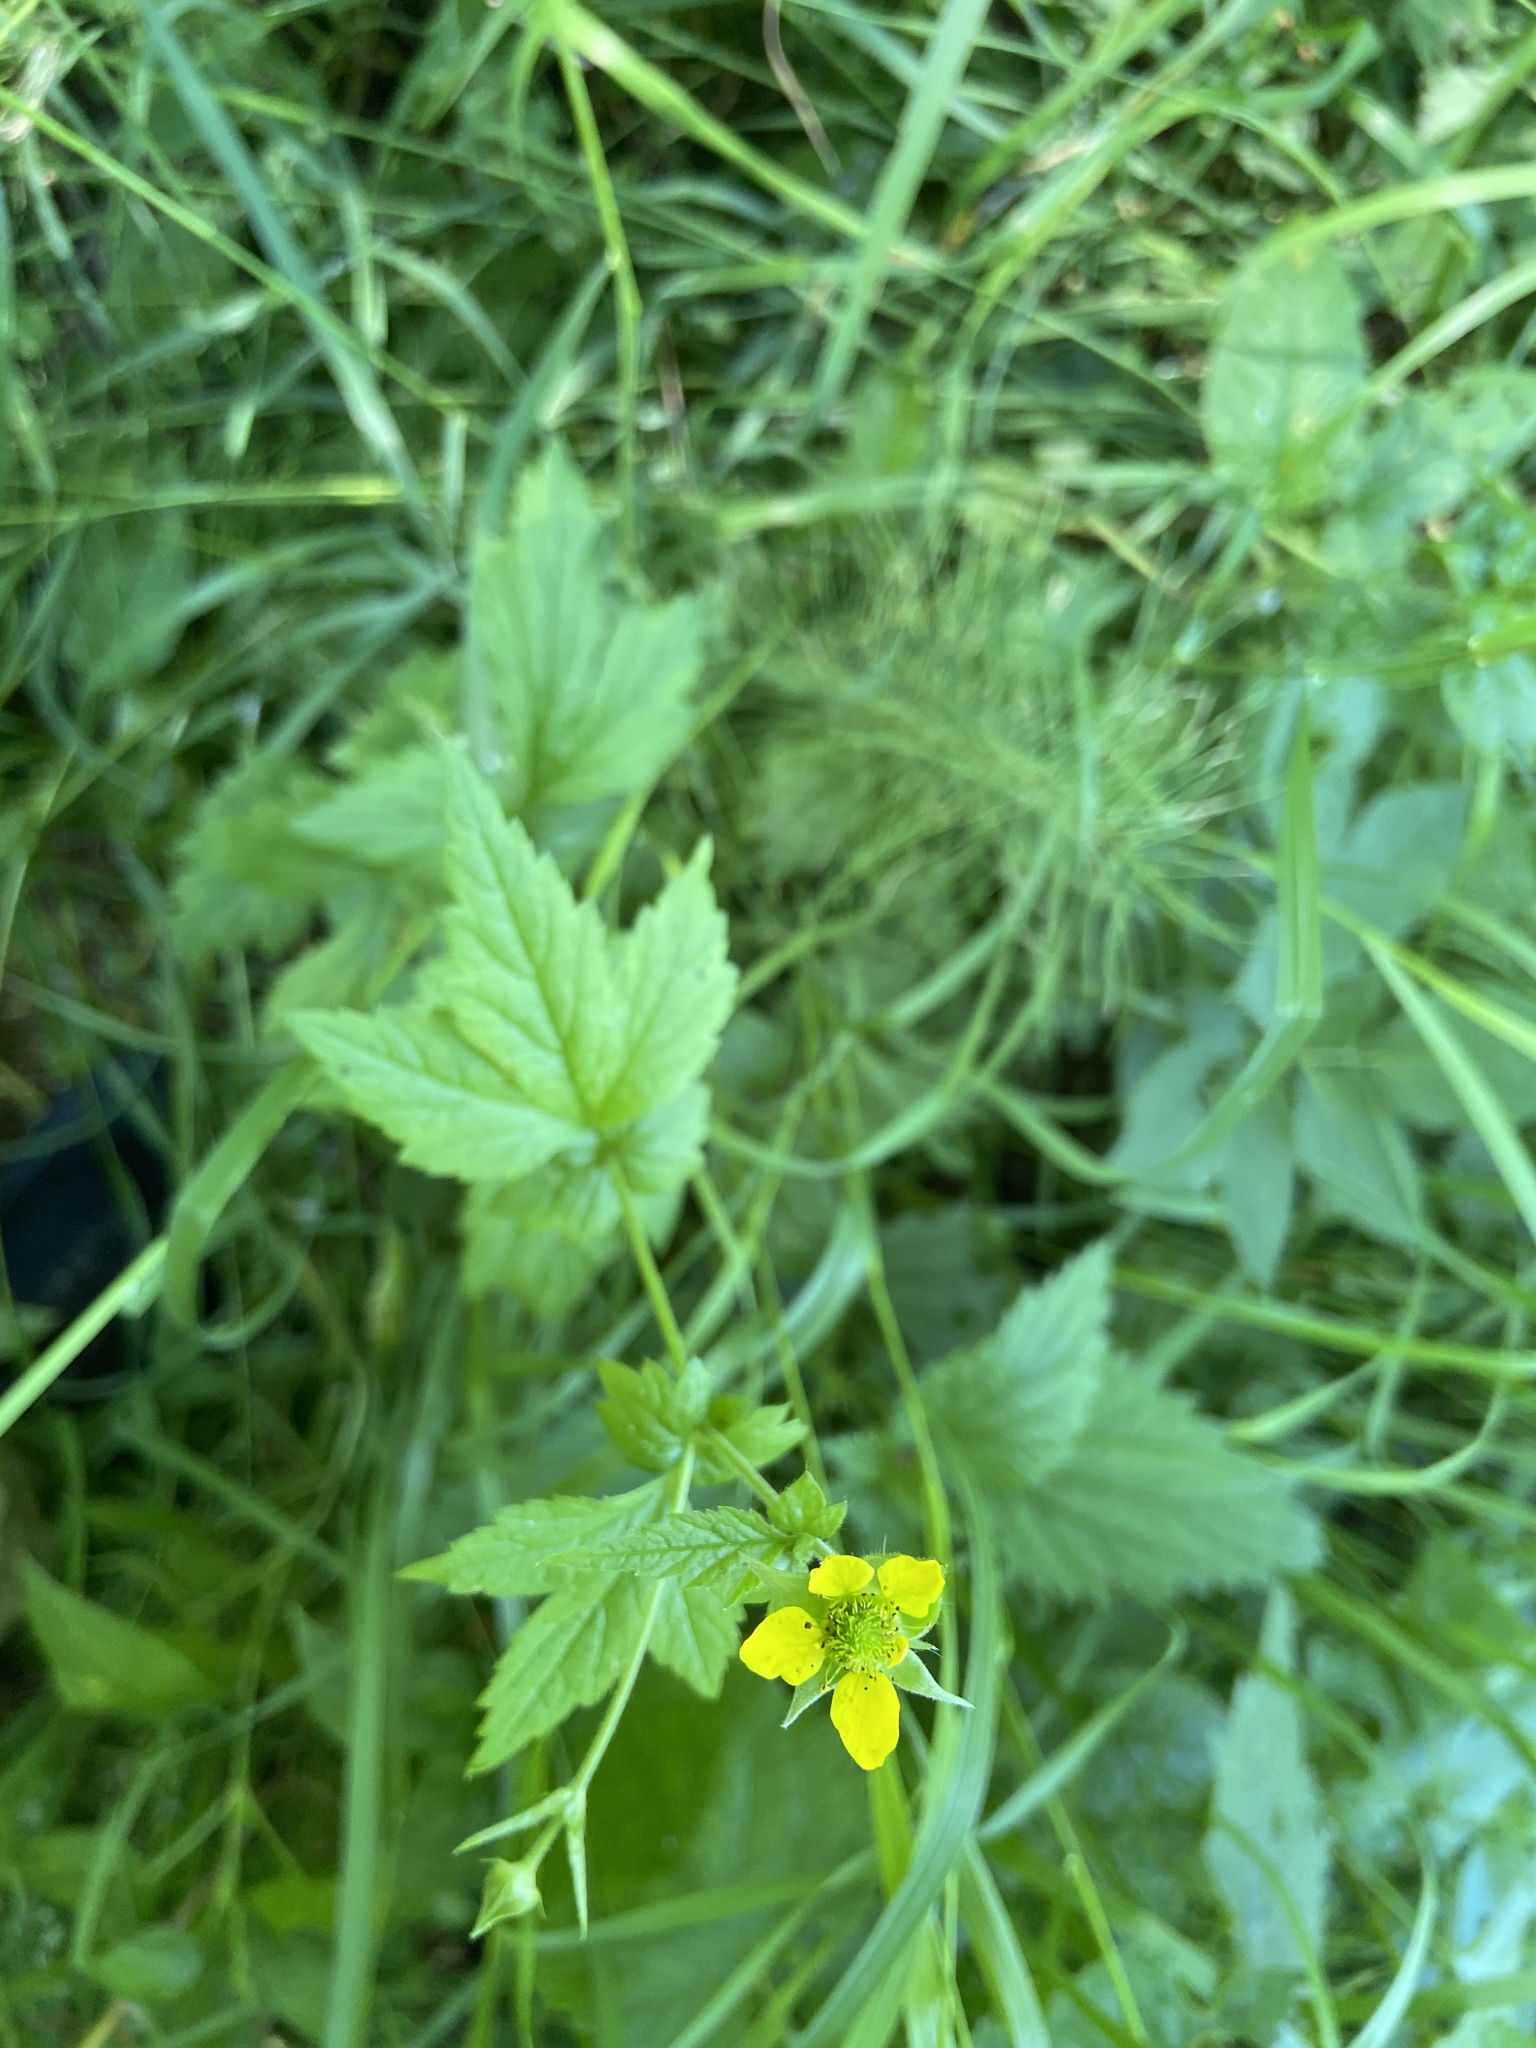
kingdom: Plantae
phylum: Tracheophyta
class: Magnoliopsida
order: Rosales
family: Rosaceae
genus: Geum
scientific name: Geum urbanum
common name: Wood avens
